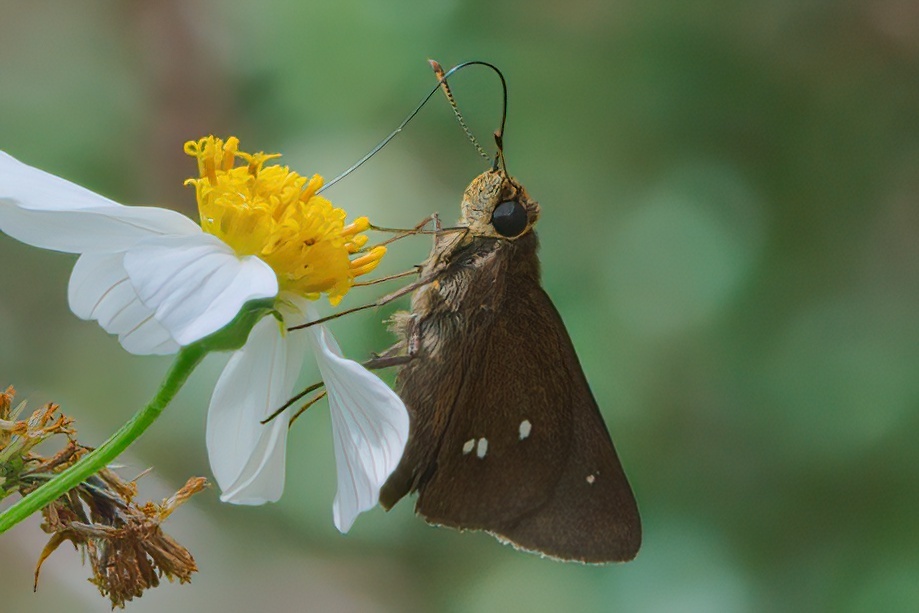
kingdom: Animalia
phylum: Arthropoda
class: Insecta
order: Lepidoptera
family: Hesperiidae
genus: Oligoria
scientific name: Oligoria maculata
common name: Twin-spot skipper
